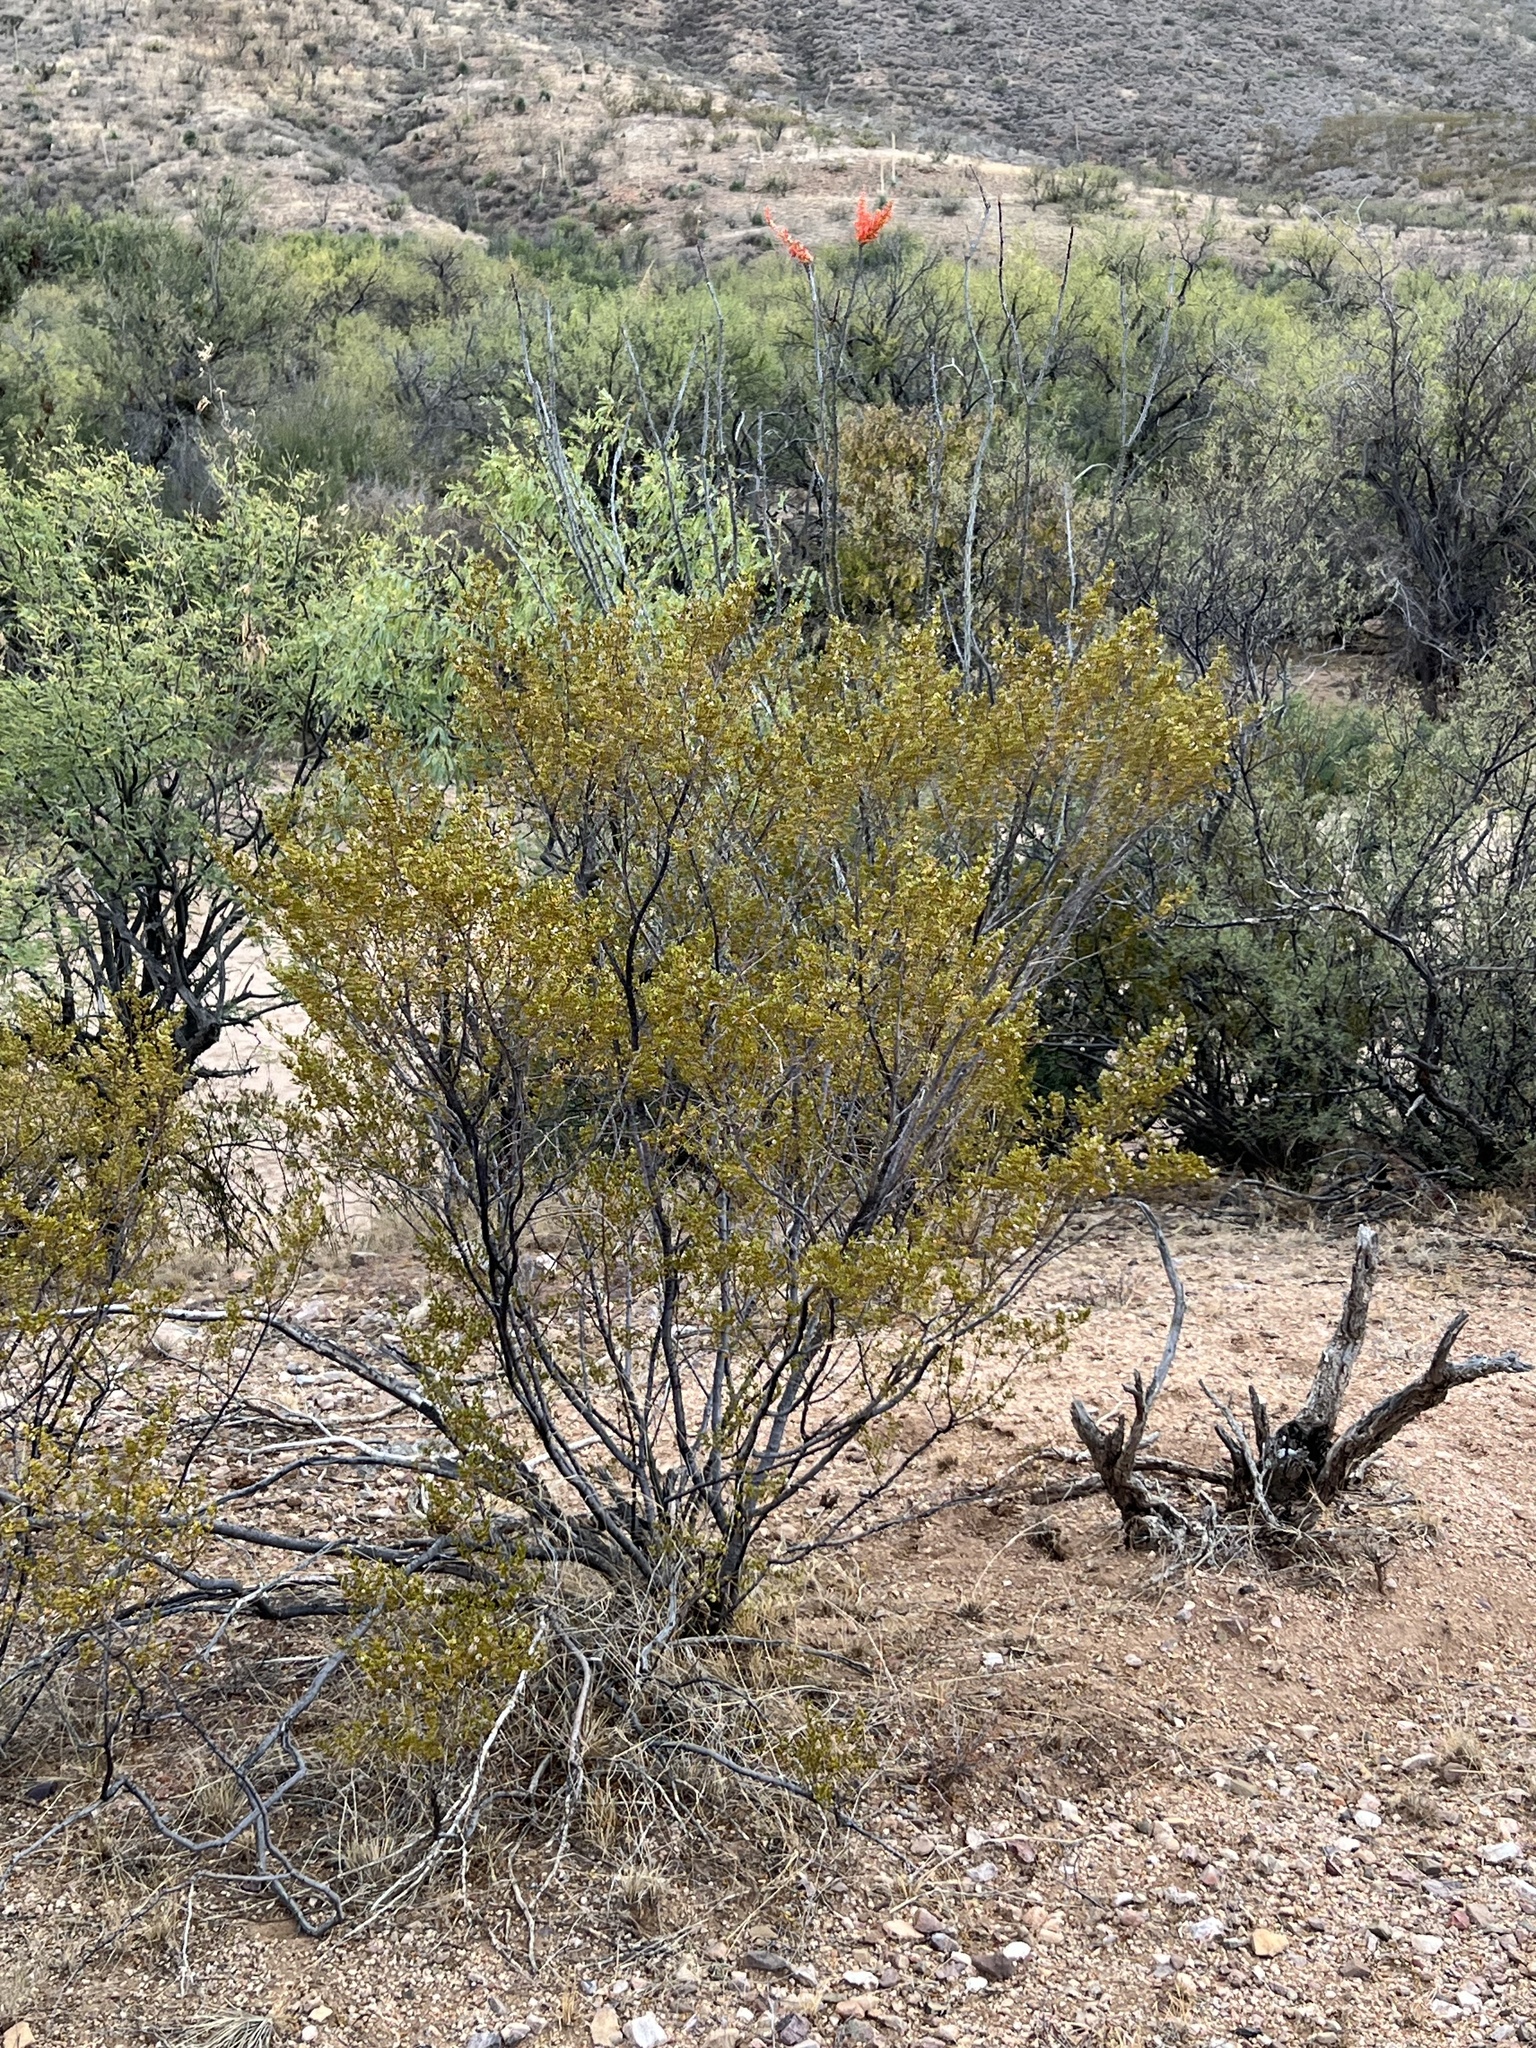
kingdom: Plantae
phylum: Tracheophyta
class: Magnoliopsida
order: Zygophyllales
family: Zygophyllaceae
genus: Larrea
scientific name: Larrea tridentata
